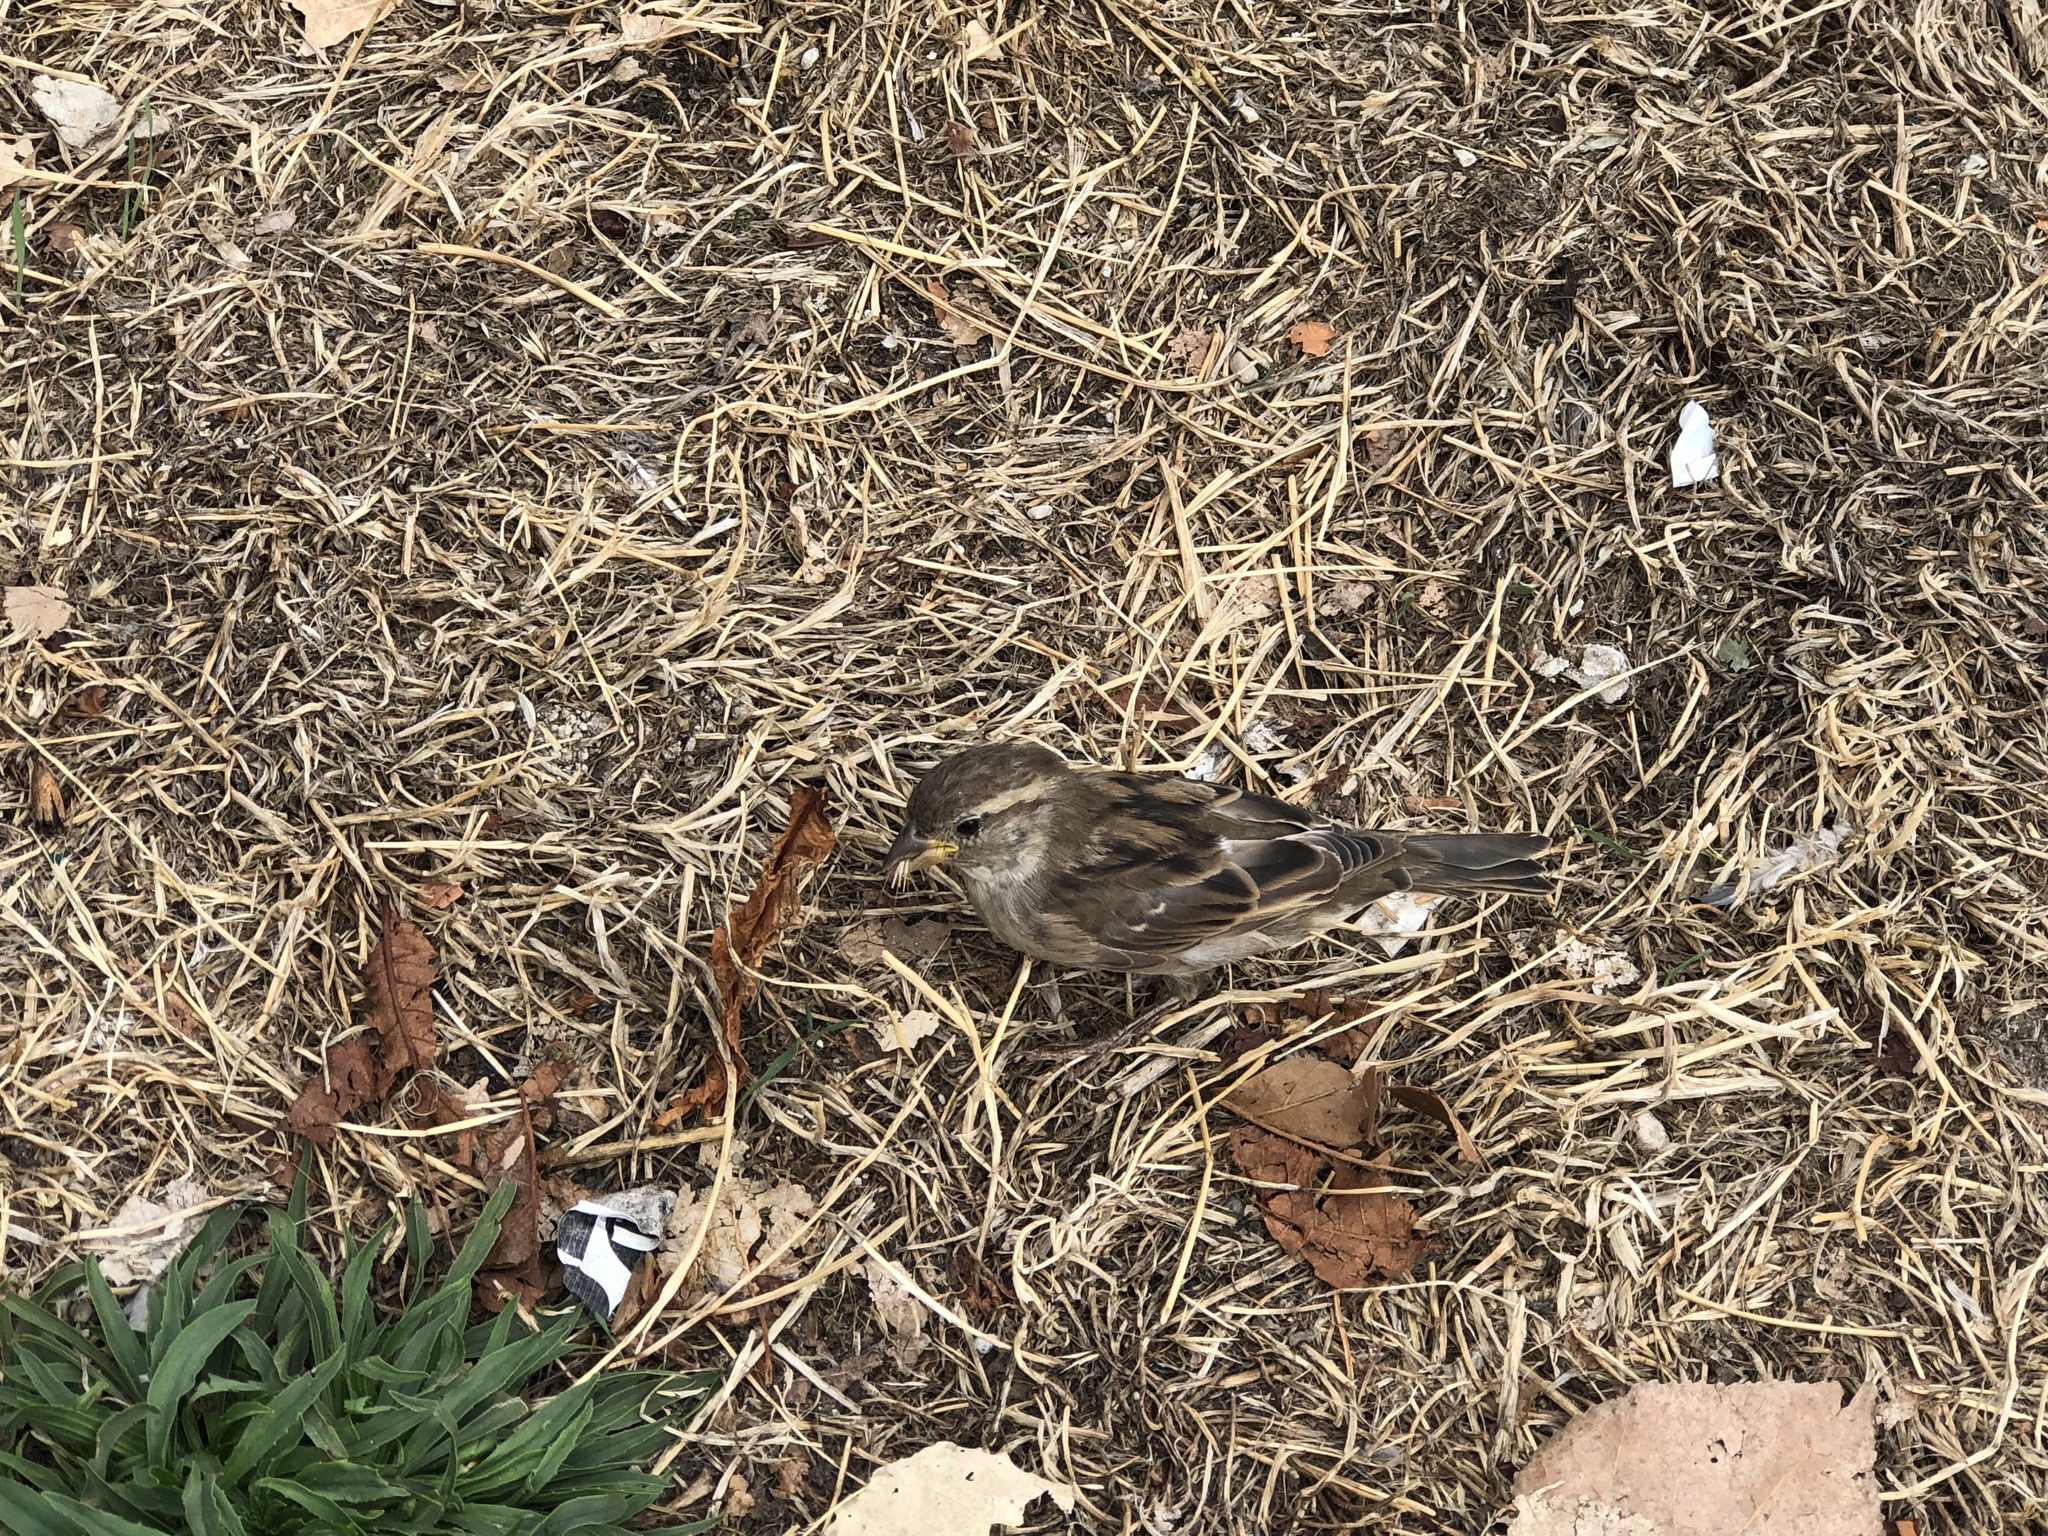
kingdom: Animalia
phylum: Chordata
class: Aves
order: Passeriformes
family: Passeridae
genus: Passer
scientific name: Passer domesticus
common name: House sparrow
